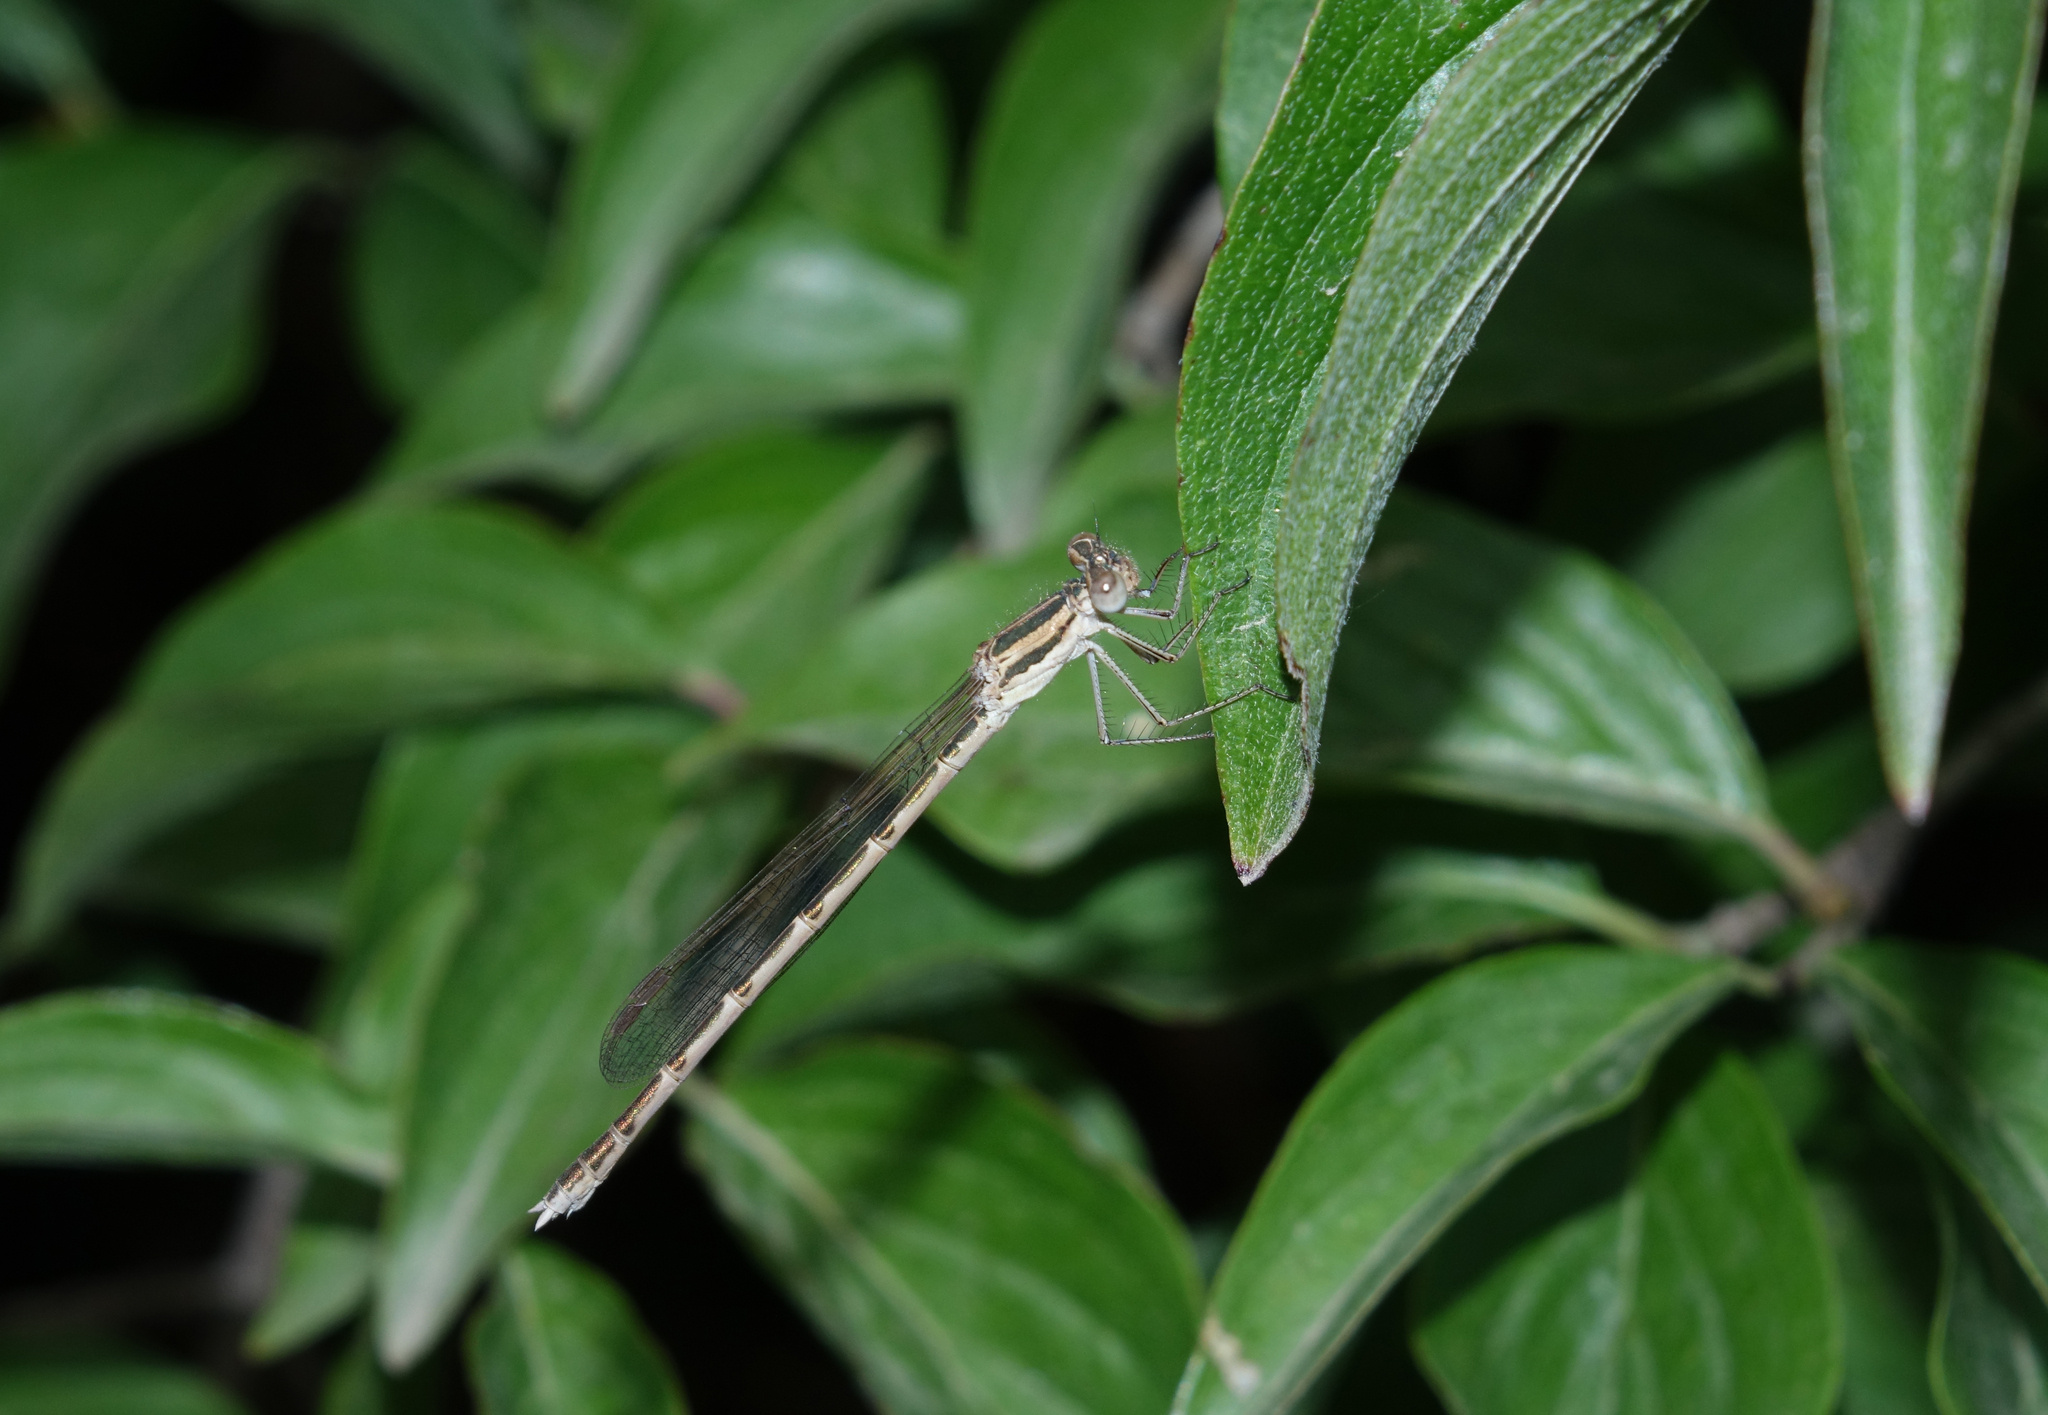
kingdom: Animalia
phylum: Arthropoda
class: Insecta
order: Odonata
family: Lestidae
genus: Sympecma
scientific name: Sympecma fusca
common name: Common winter damsel
